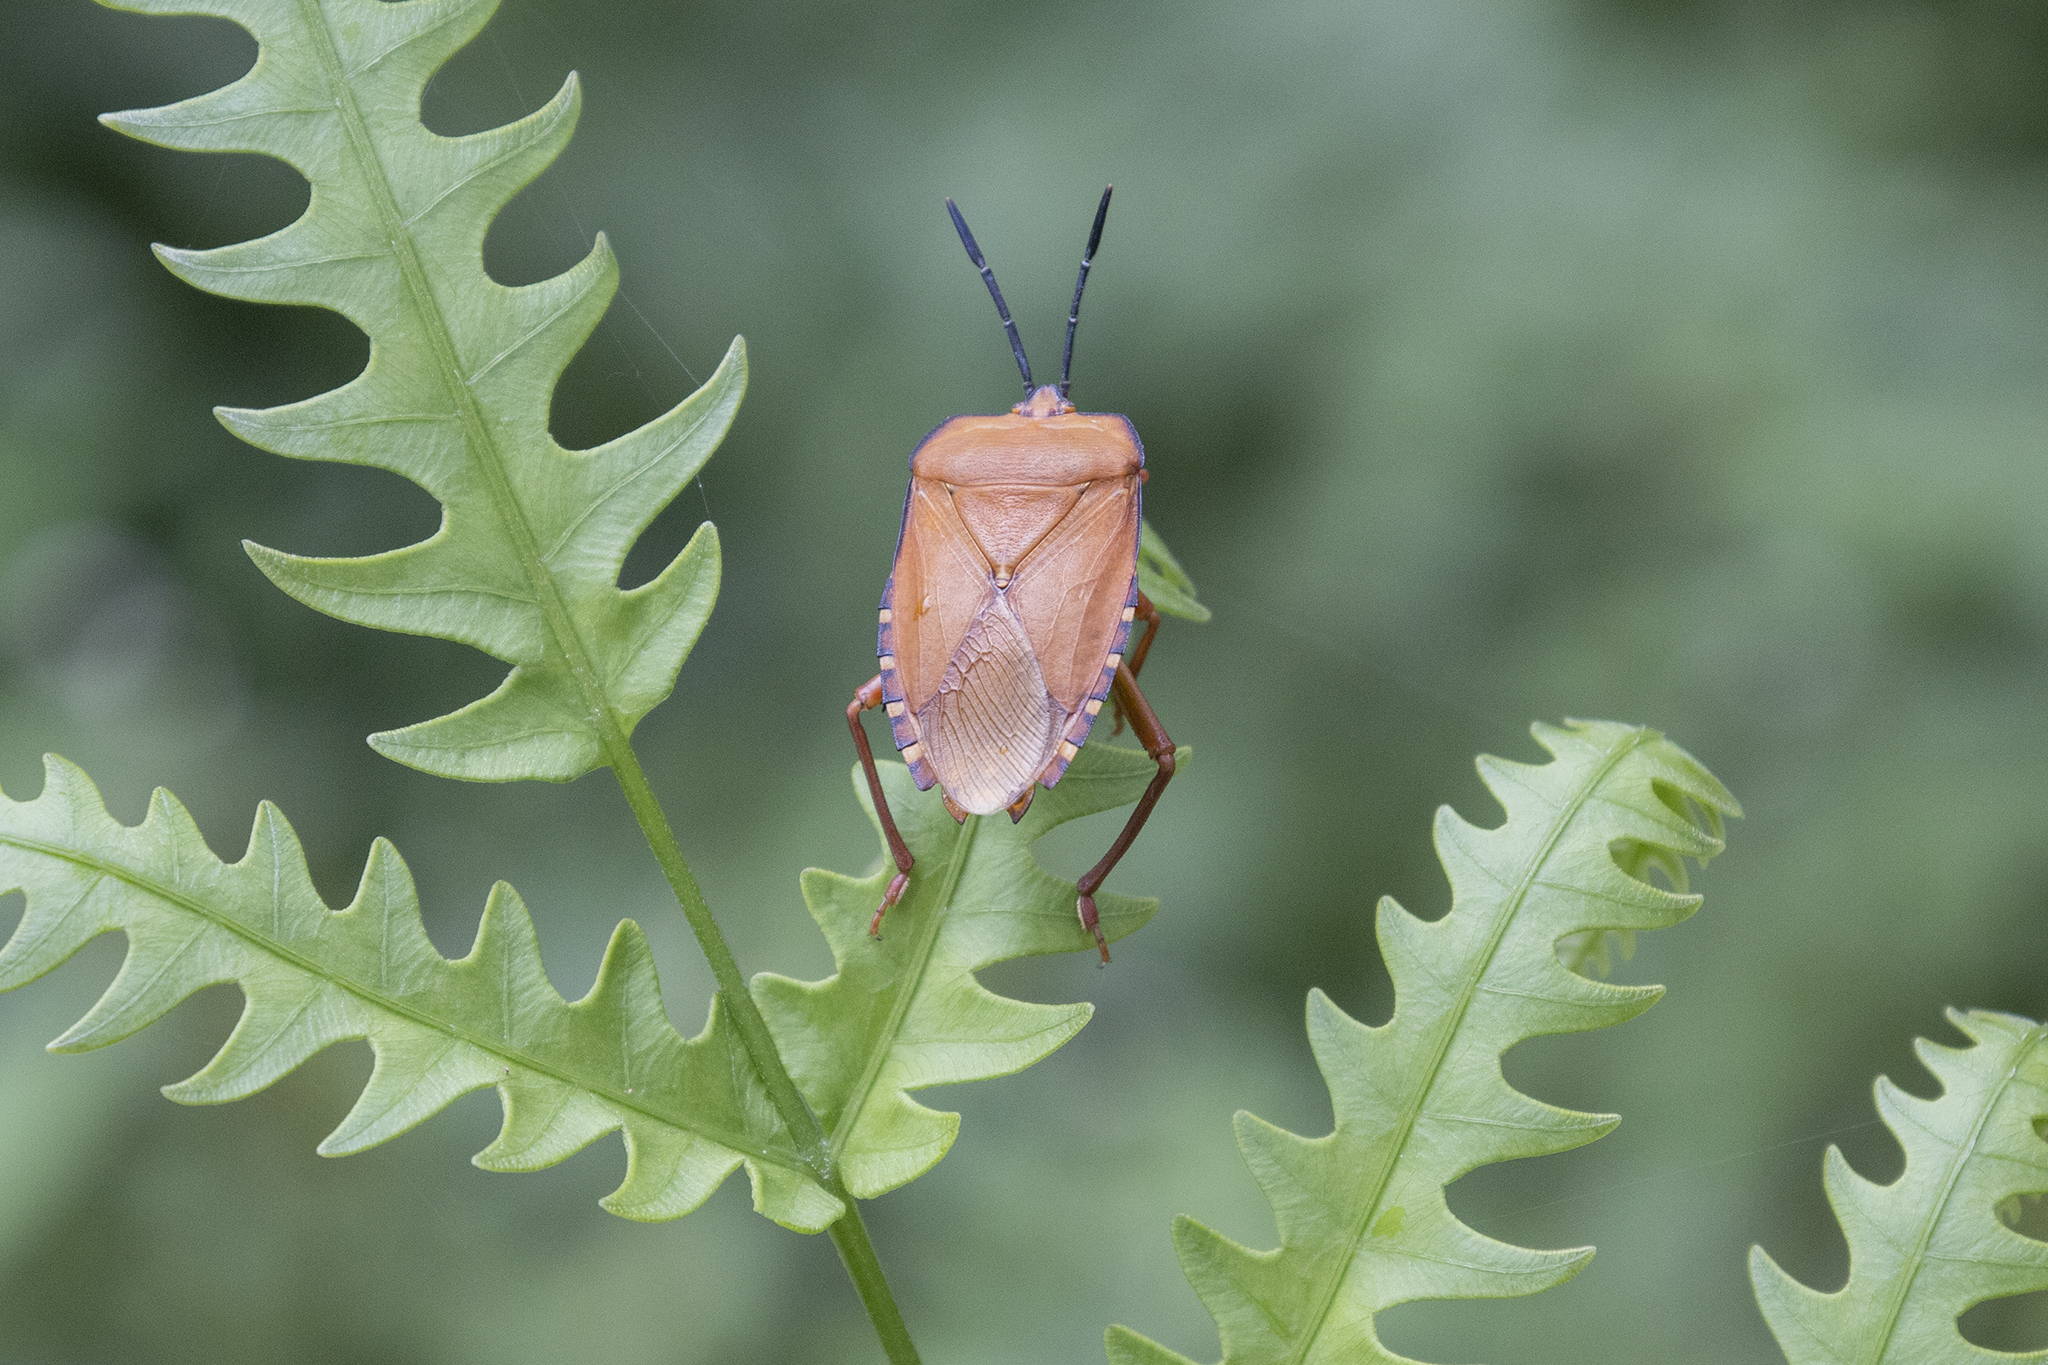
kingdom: Animalia
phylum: Arthropoda
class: Insecta
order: Hemiptera
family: Tessaratomidae
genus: Pycanum
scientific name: Pycanum ochraceum
